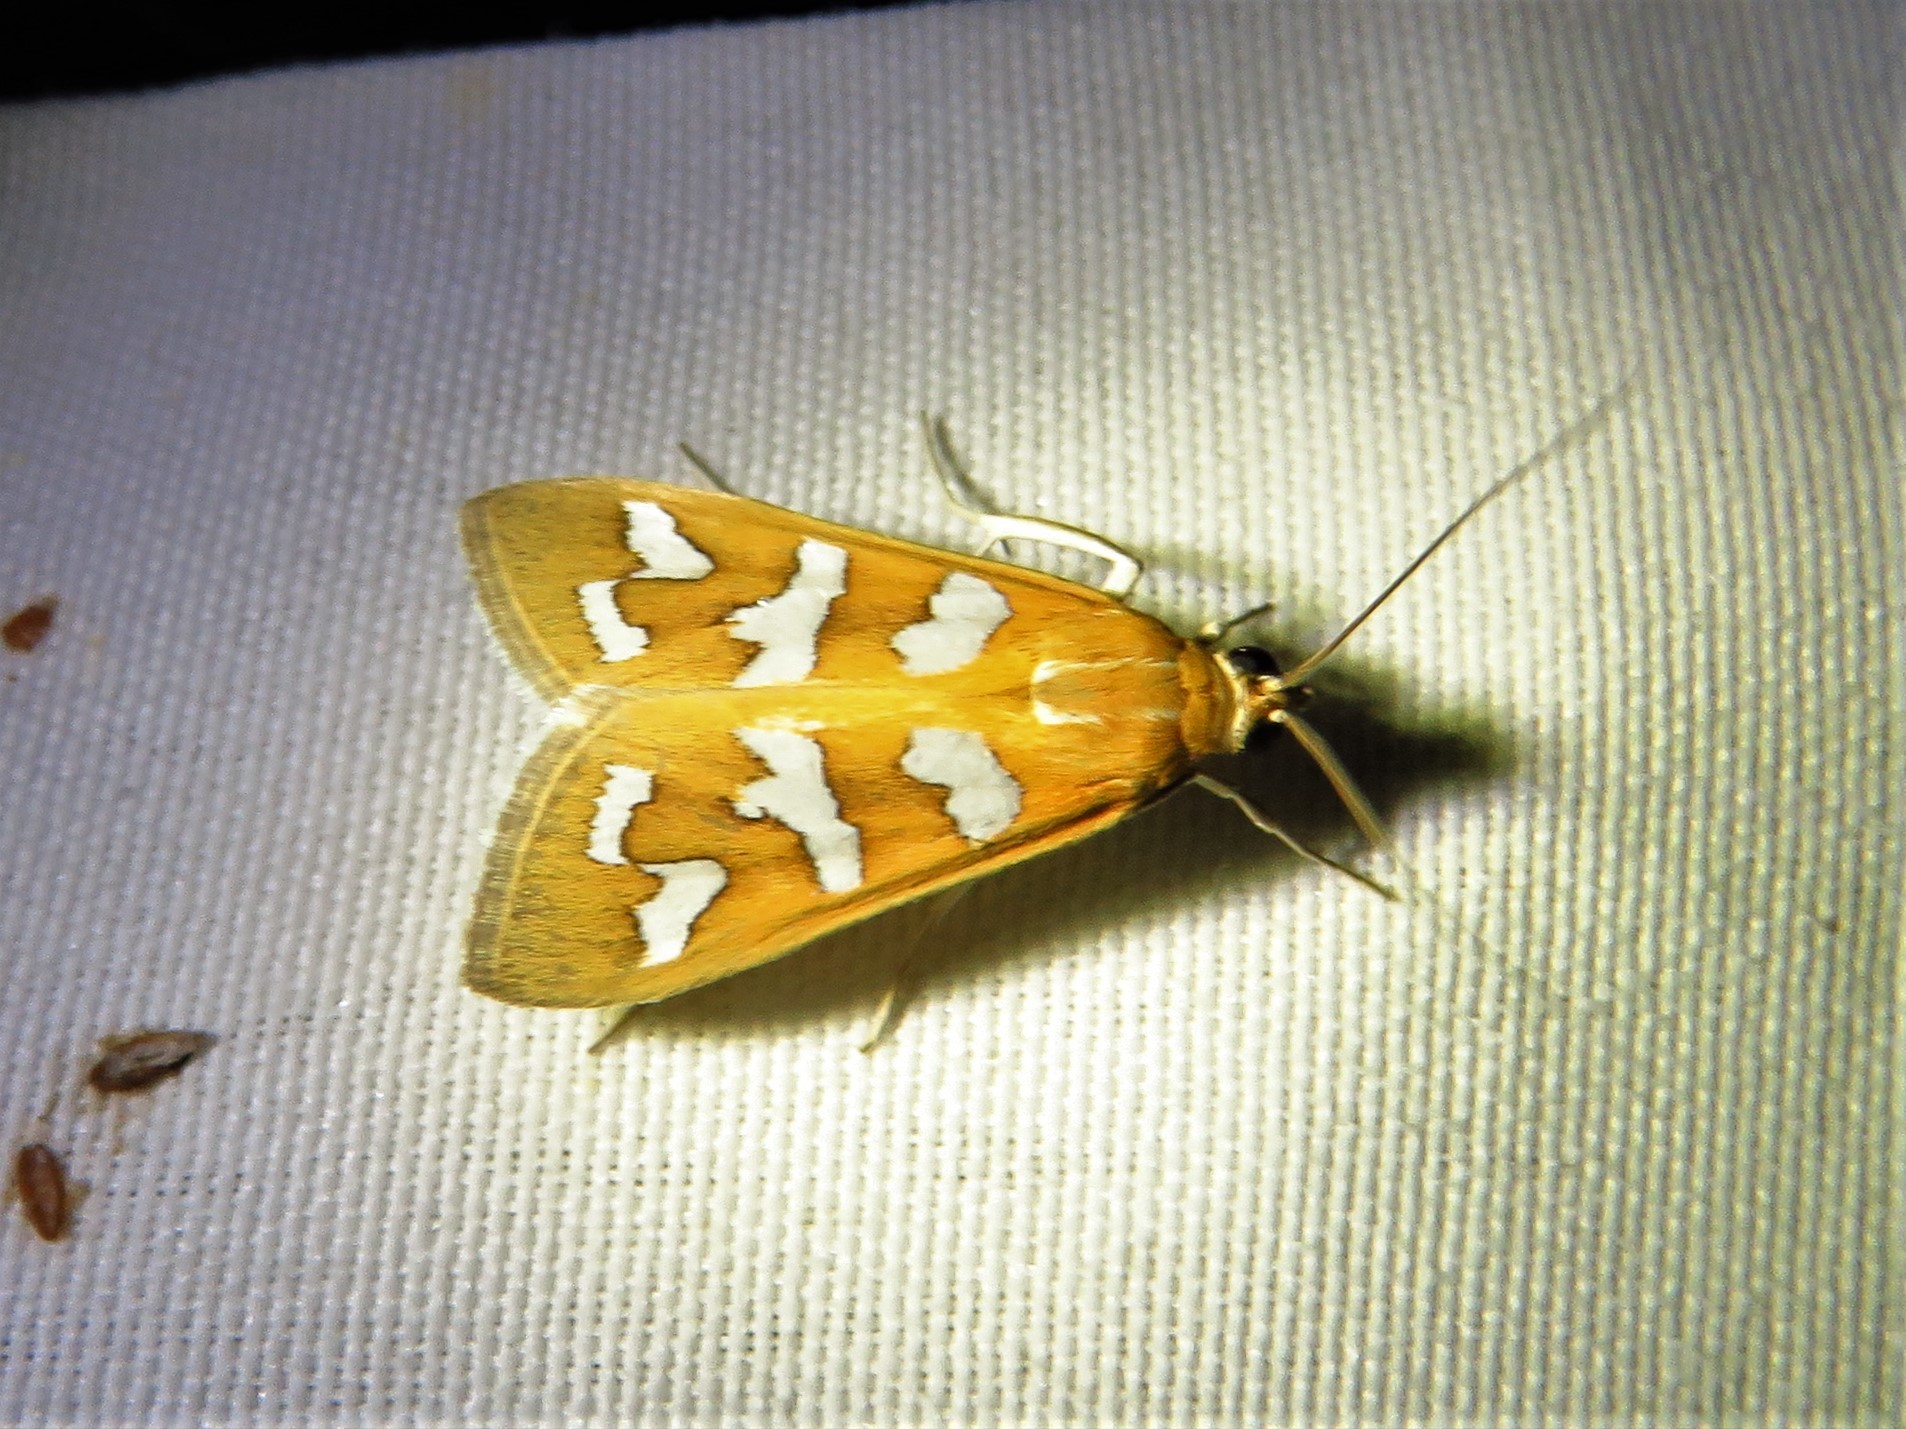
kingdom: Animalia
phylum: Arthropoda
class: Insecta
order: Lepidoptera
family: Crambidae
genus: Diastictis
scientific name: Diastictis fracturalis
